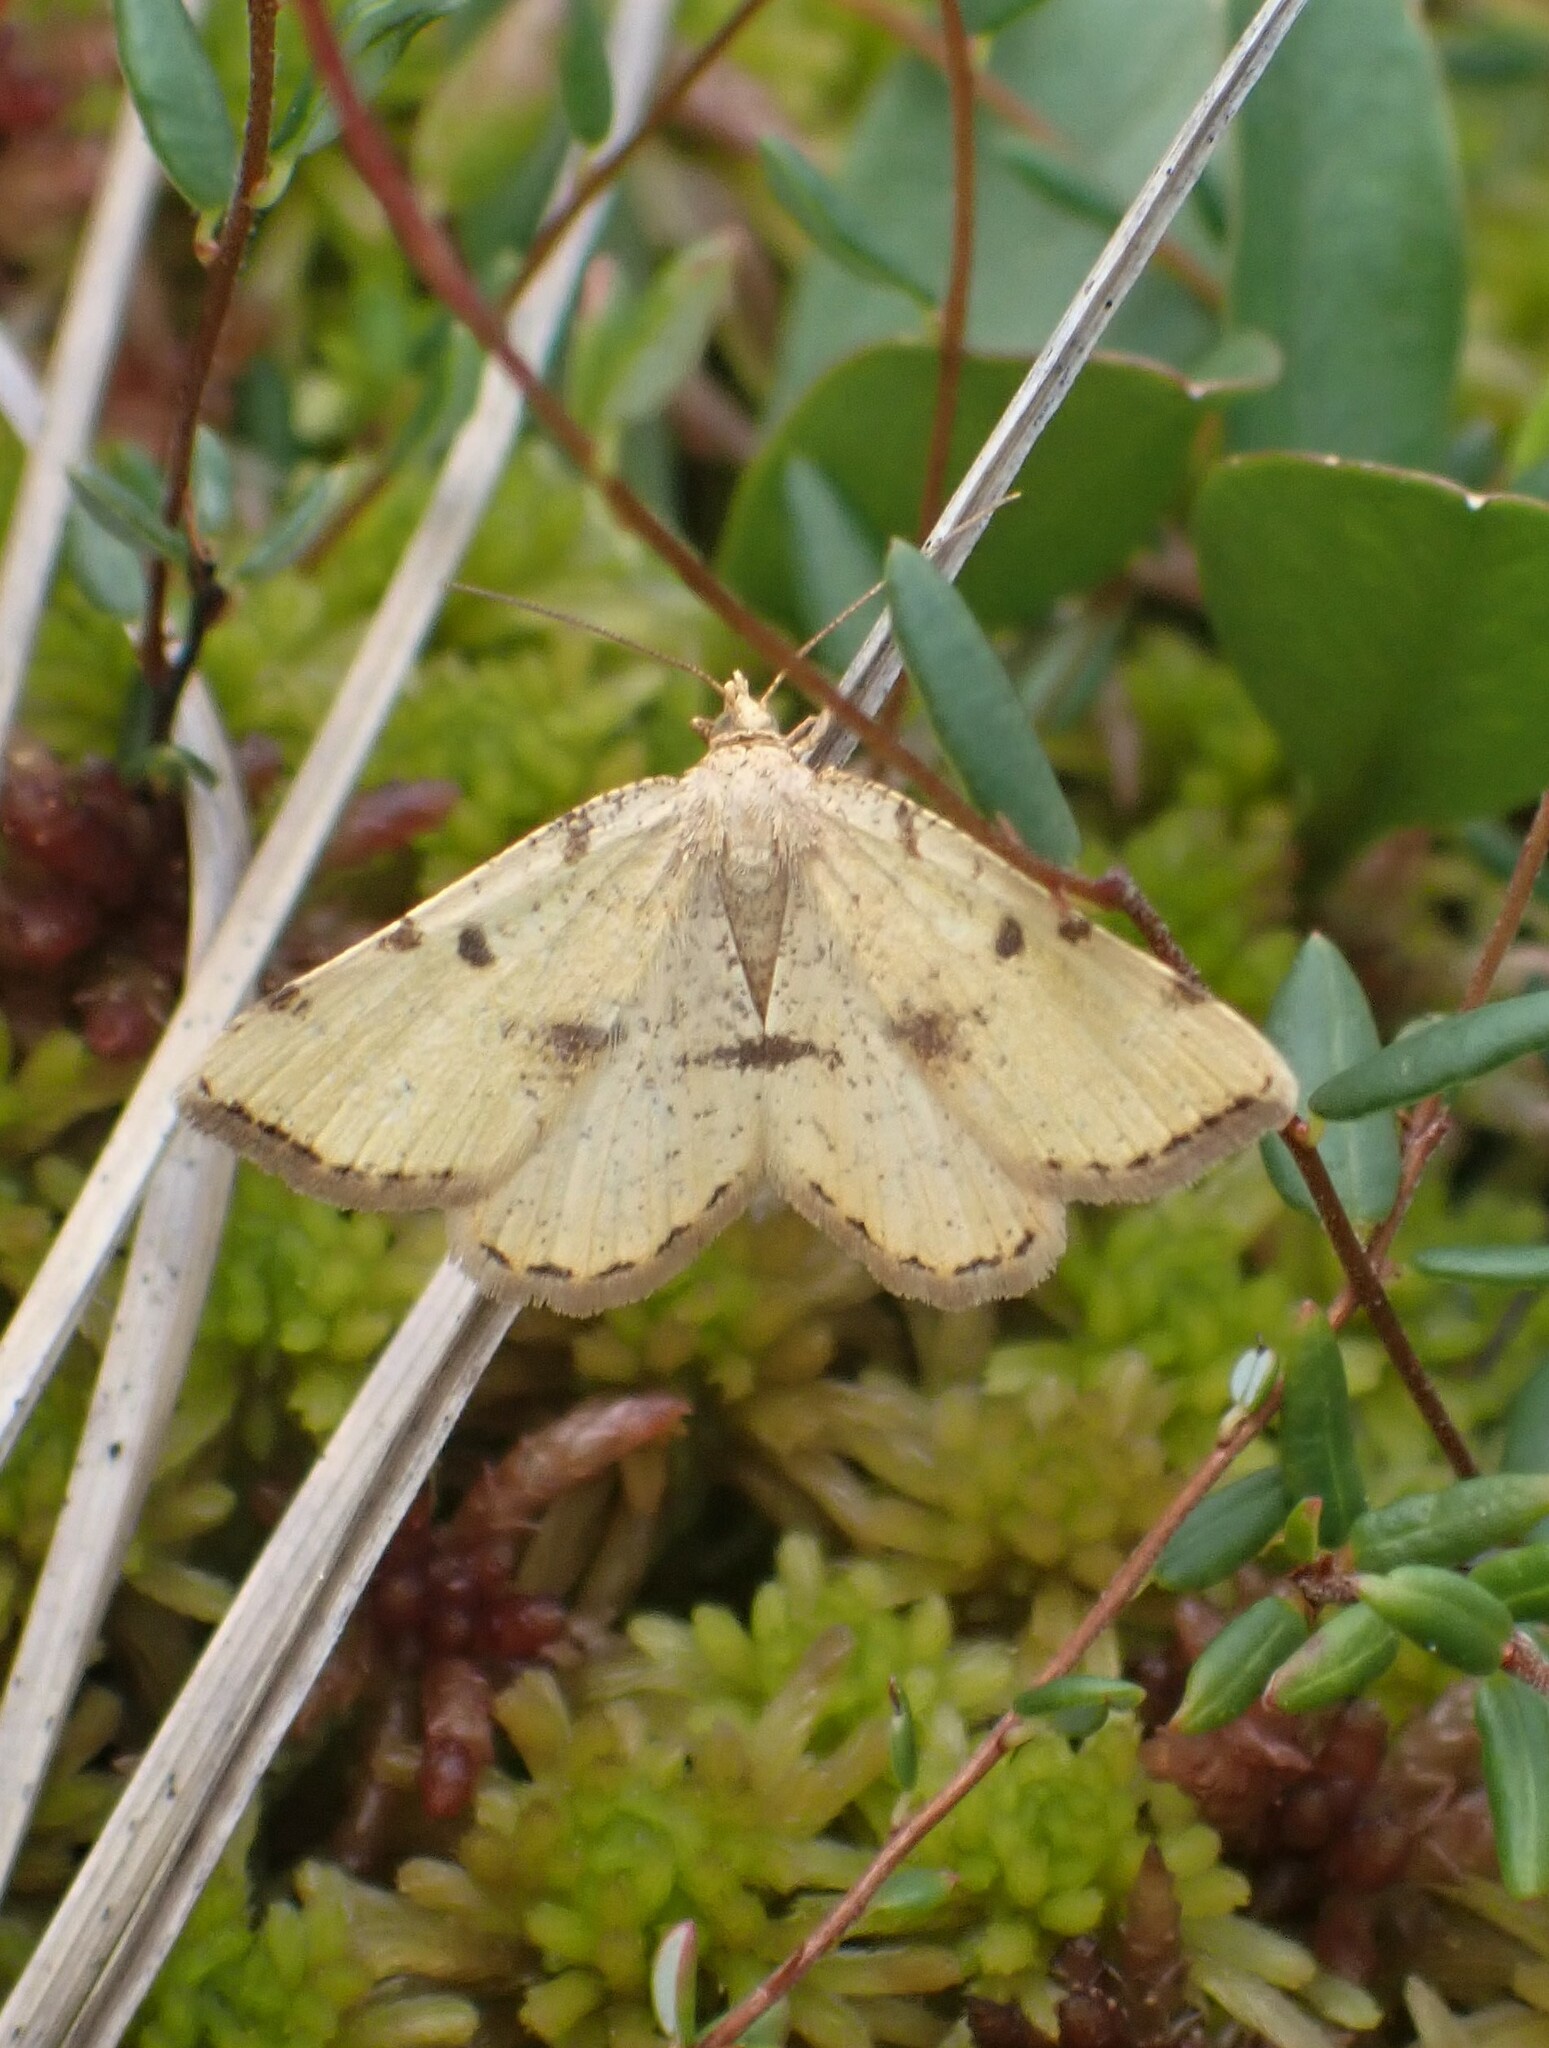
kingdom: Animalia
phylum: Arthropoda
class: Insecta
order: Lepidoptera
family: Geometridae
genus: Macaria
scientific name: Macaria sulphurea
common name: Sulphur angle
